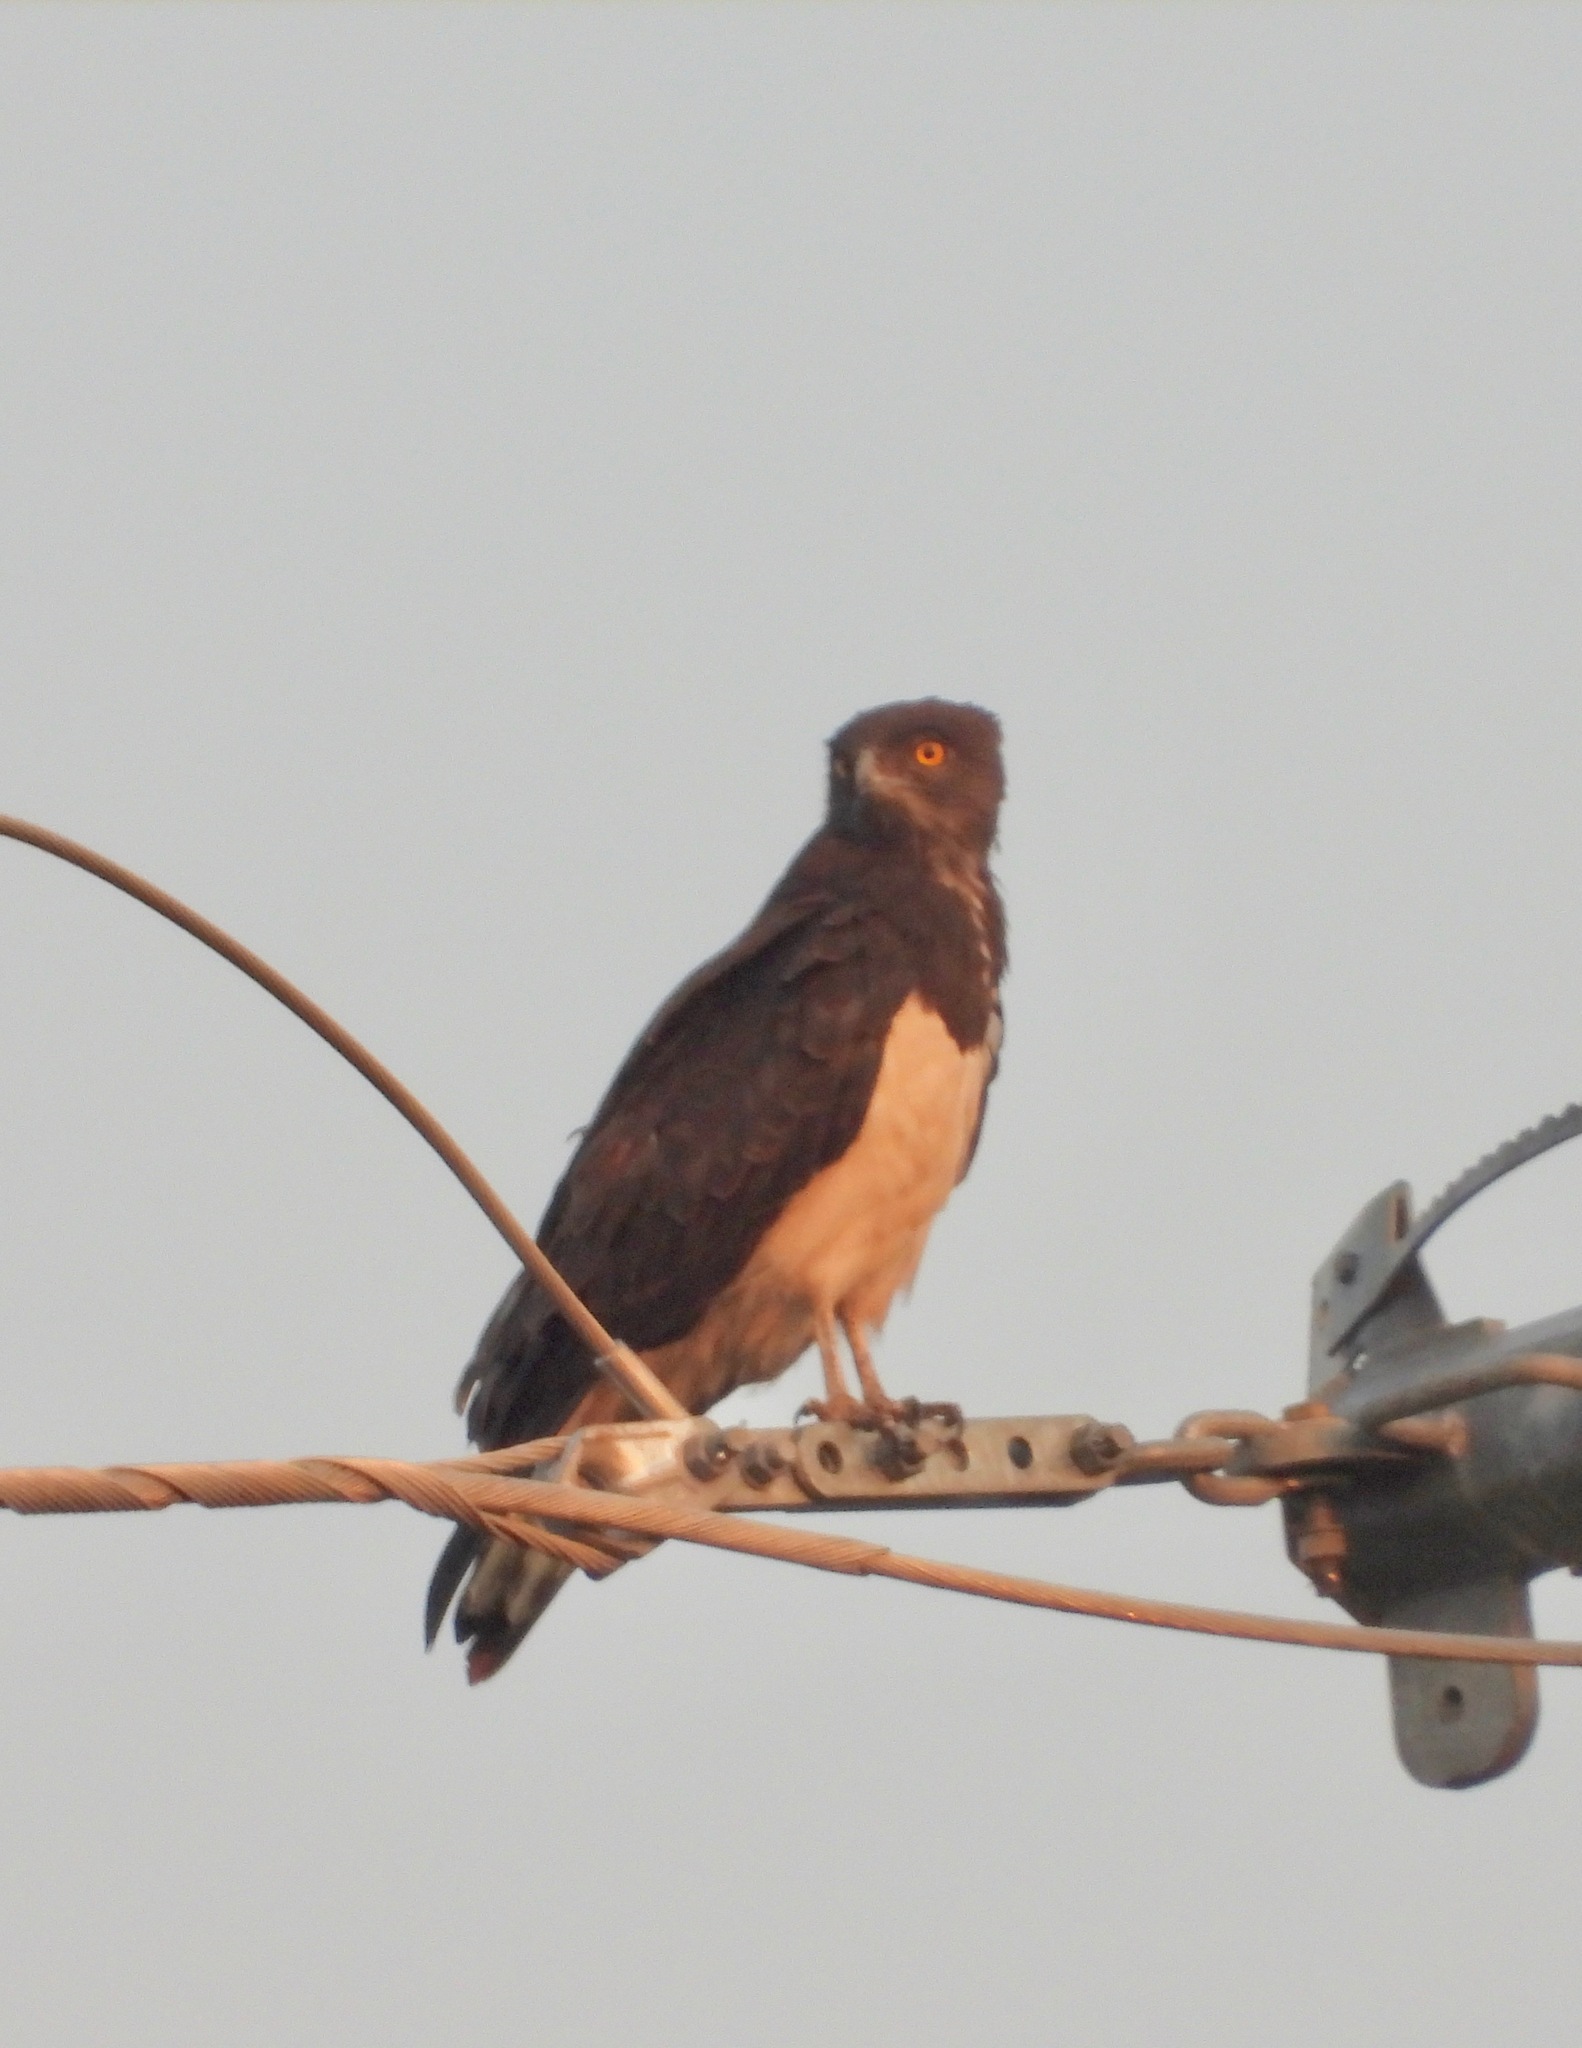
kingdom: Animalia
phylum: Chordata
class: Aves
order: Accipitriformes
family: Accipitridae
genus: Circaetus
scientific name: Circaetus pectoralis
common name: Black-chested snake eagle
